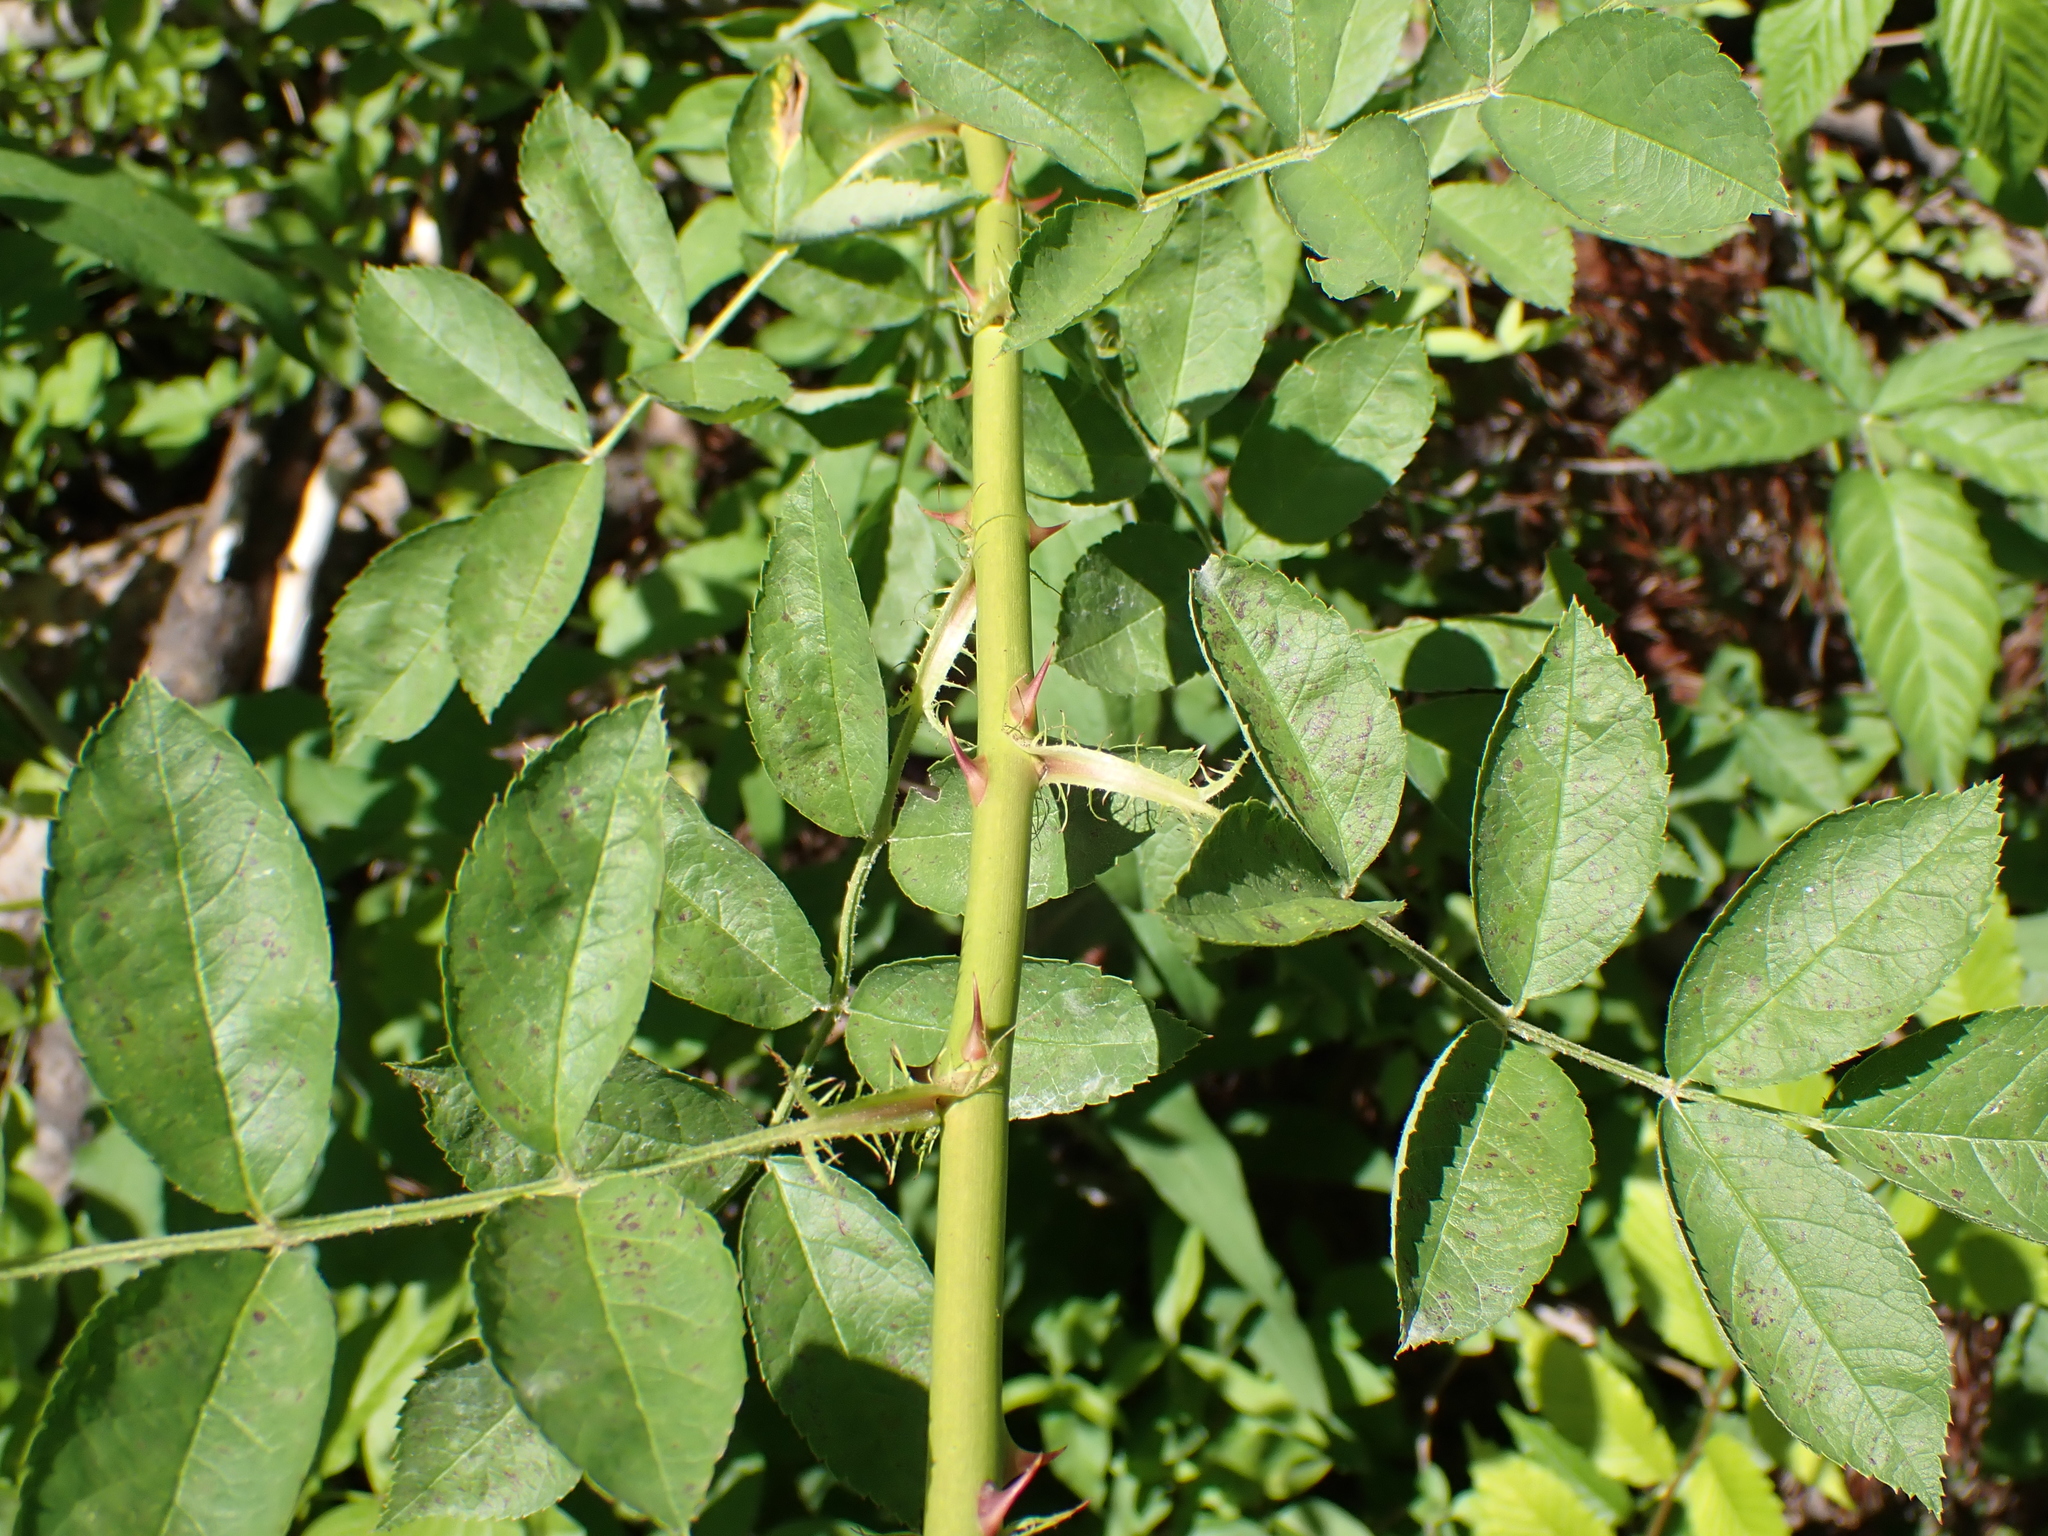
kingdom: Plantae
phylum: Tracheophyta
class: Magnoliopsida
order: Rosales
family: Rosaceae
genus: Rosa
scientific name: Rosa multiflora
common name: Multiflora rose
